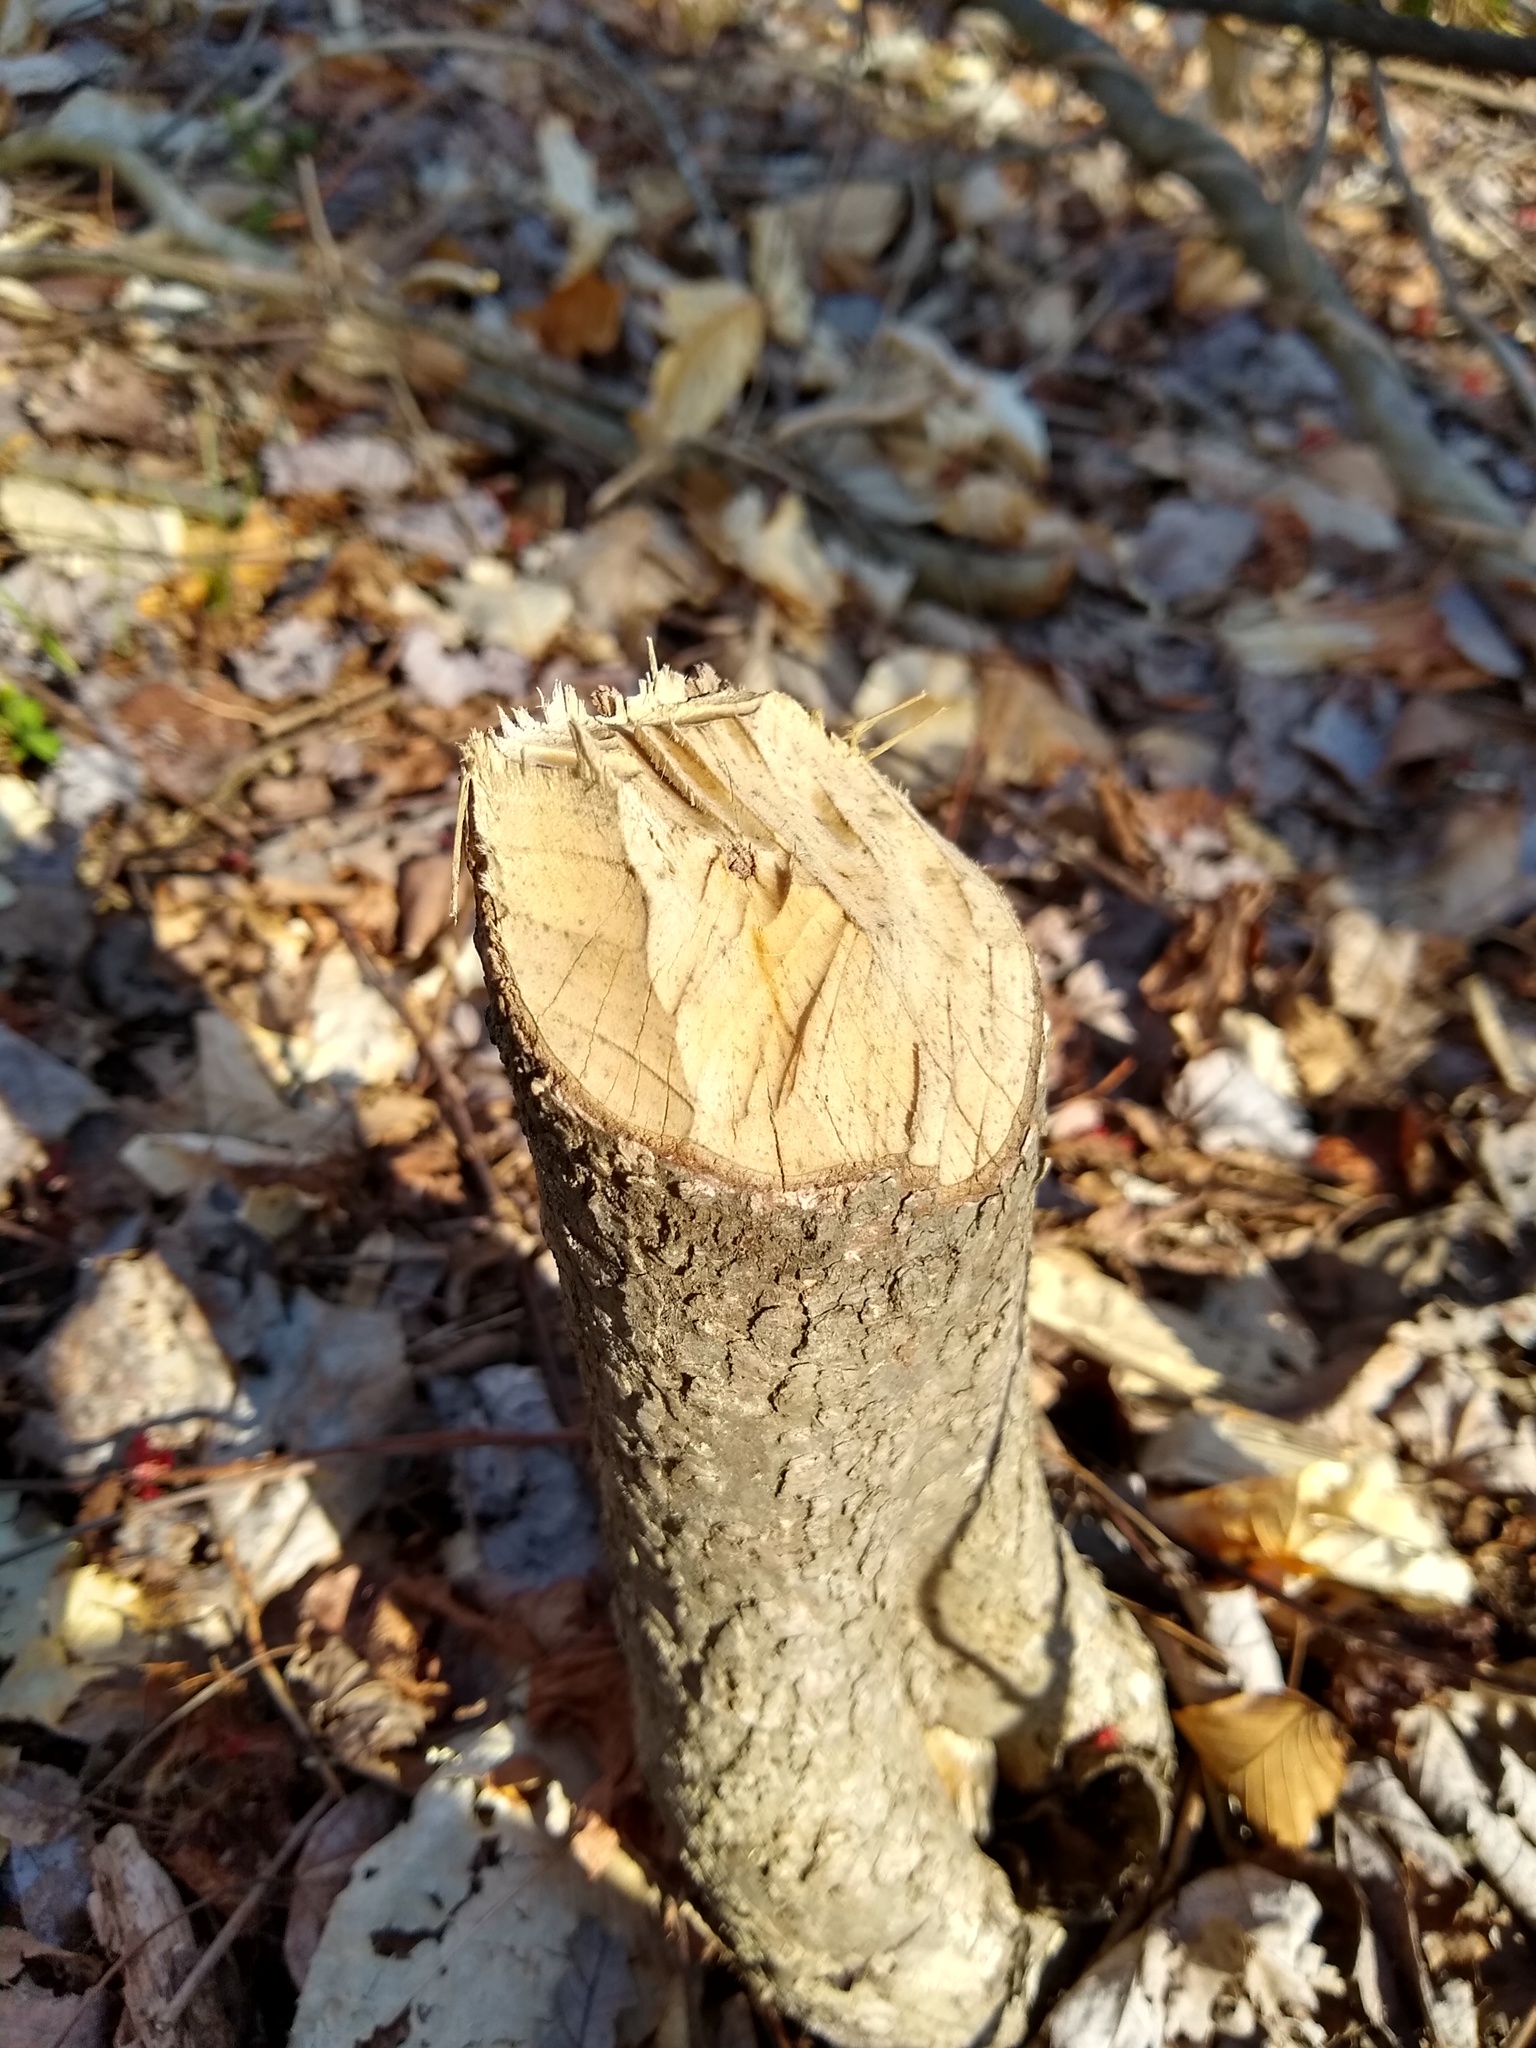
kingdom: Animalia
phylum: Chordata
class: Mammalia
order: Rodentia
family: Castoridae
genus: Castor
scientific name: Castor canadensis
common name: American beaver
